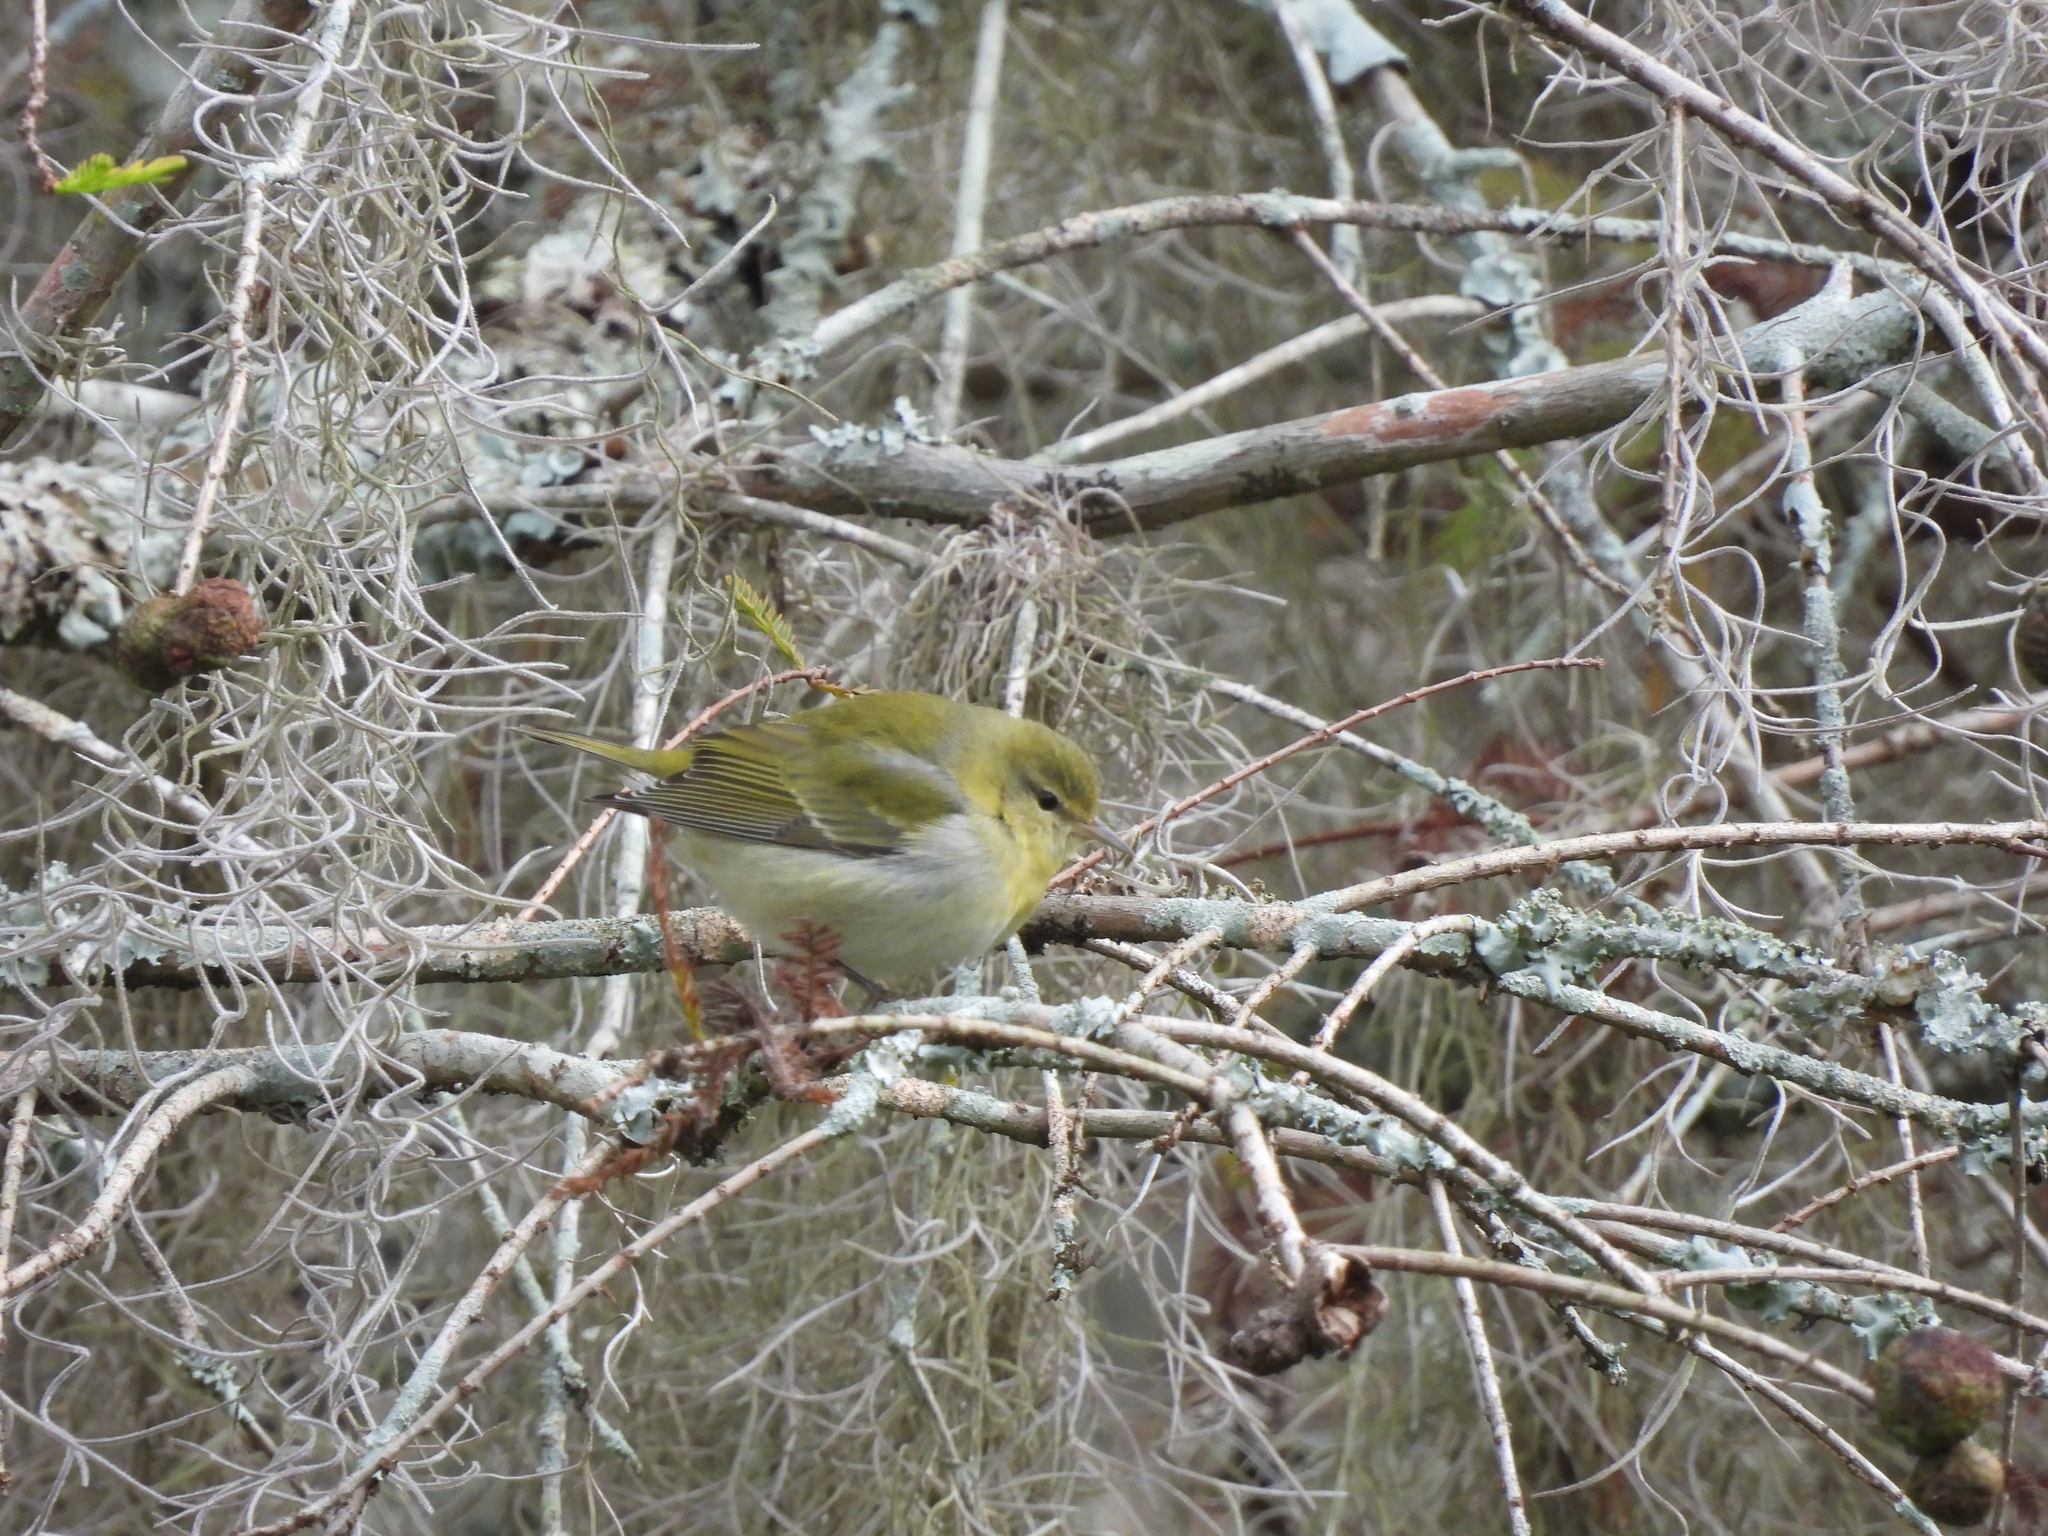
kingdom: Animalia
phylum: Chordata
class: Aves
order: Passeriformes
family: Parulidae
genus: Leiothlypis
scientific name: Leiothlypis peregrina
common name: Tennessee warbler
